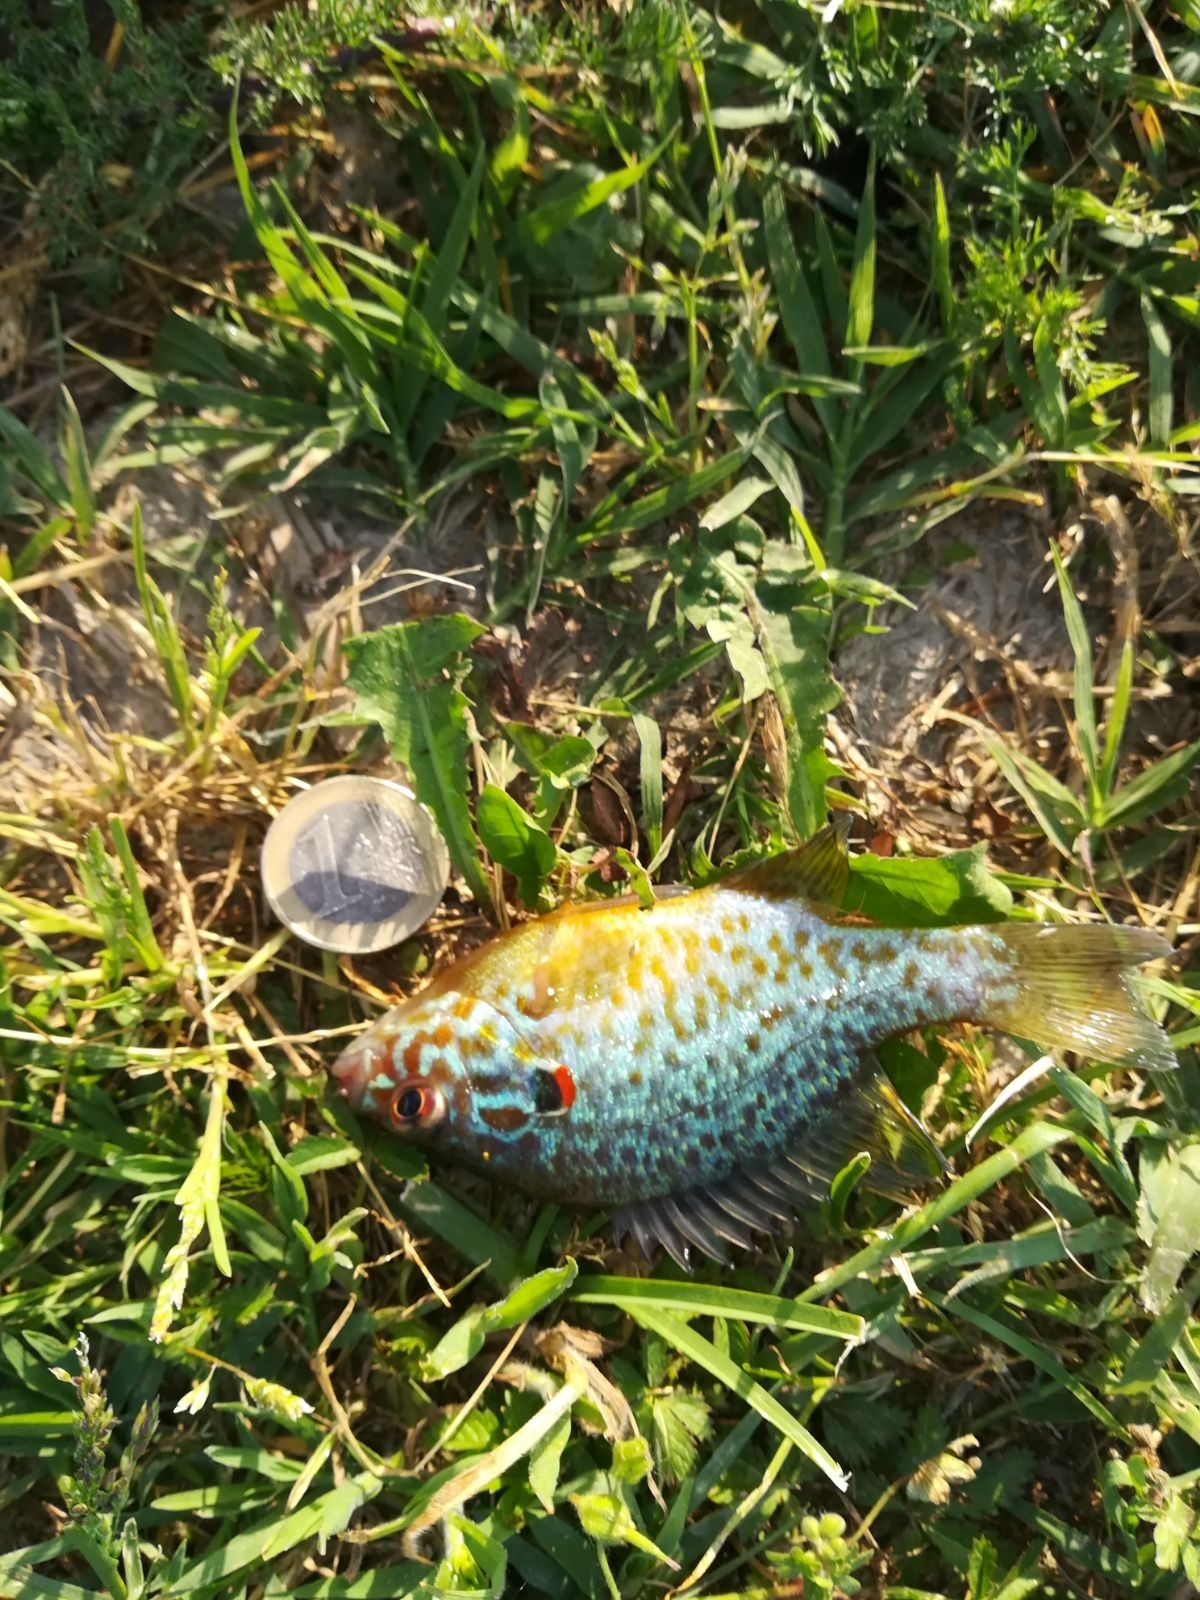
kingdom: Animalia
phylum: Chordata
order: Perciformes
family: Centrarchidae
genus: Lepomis
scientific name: Lepomis gibbosus
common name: Pumpkinseed
